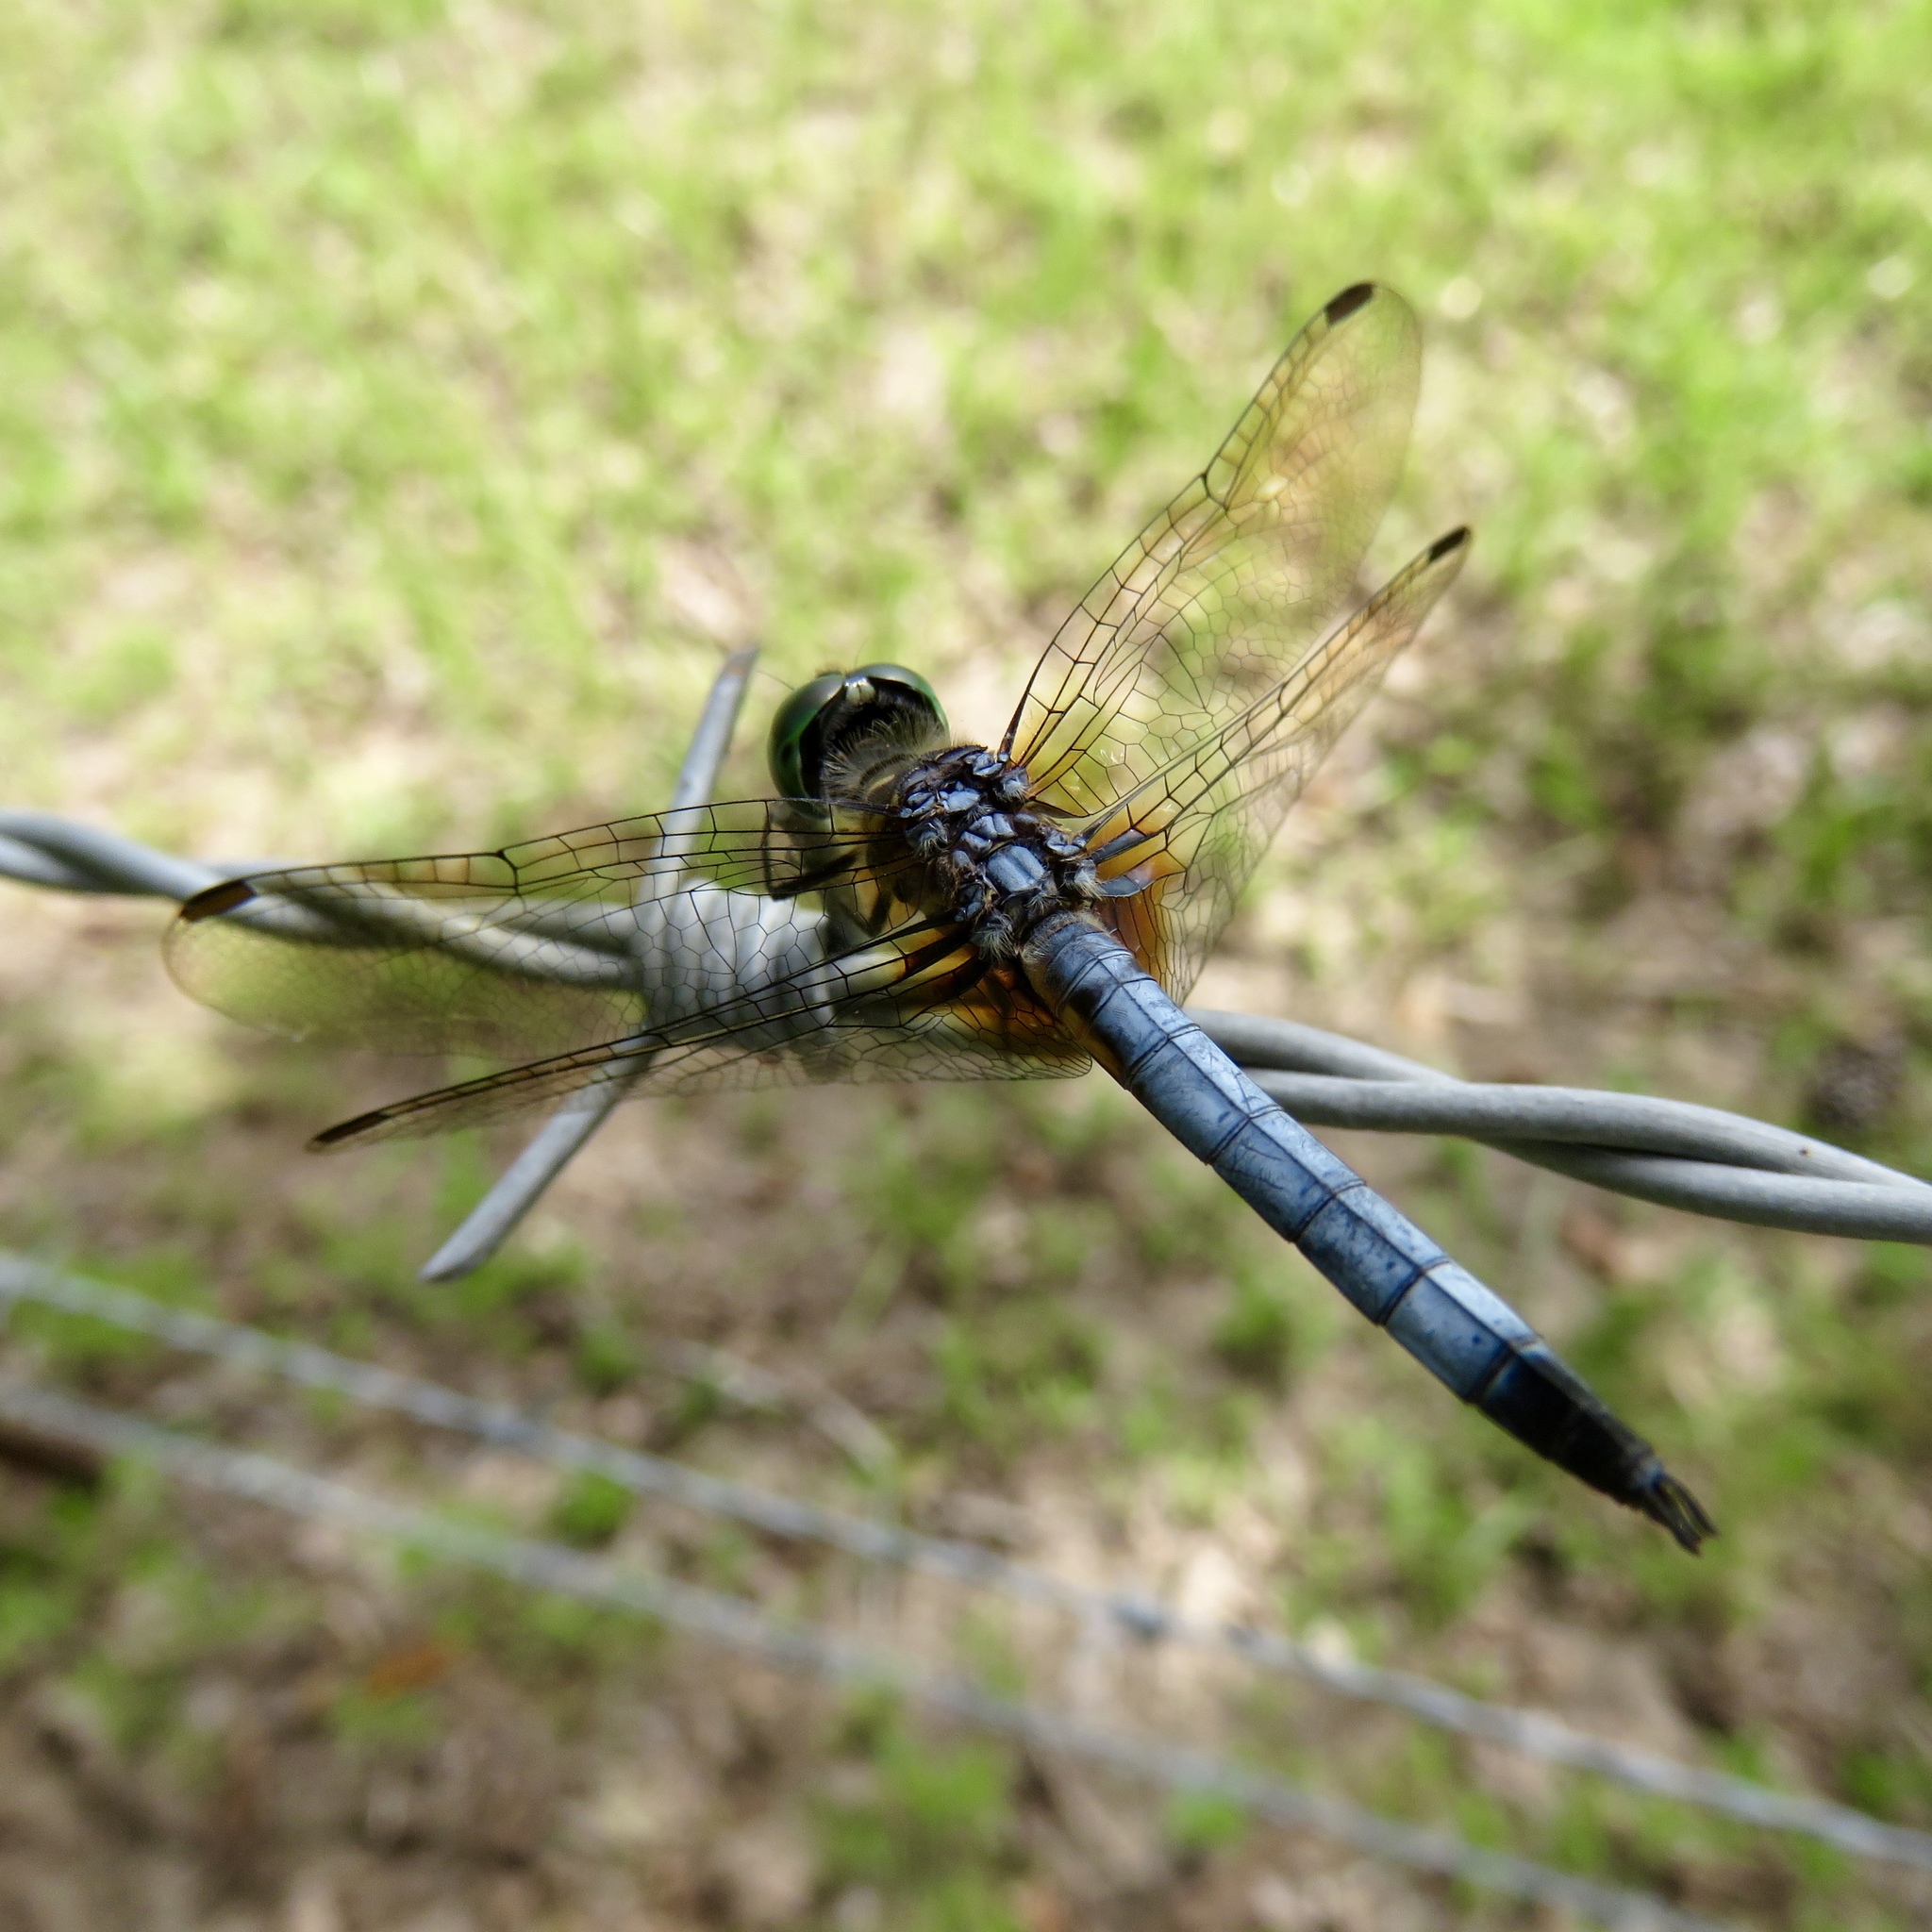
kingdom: Animalia
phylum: Arthropoda
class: Insecta
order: Odonata
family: Libellulidae
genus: Pachydiplax
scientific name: Pachydiplax longipennis
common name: Blue dasher
